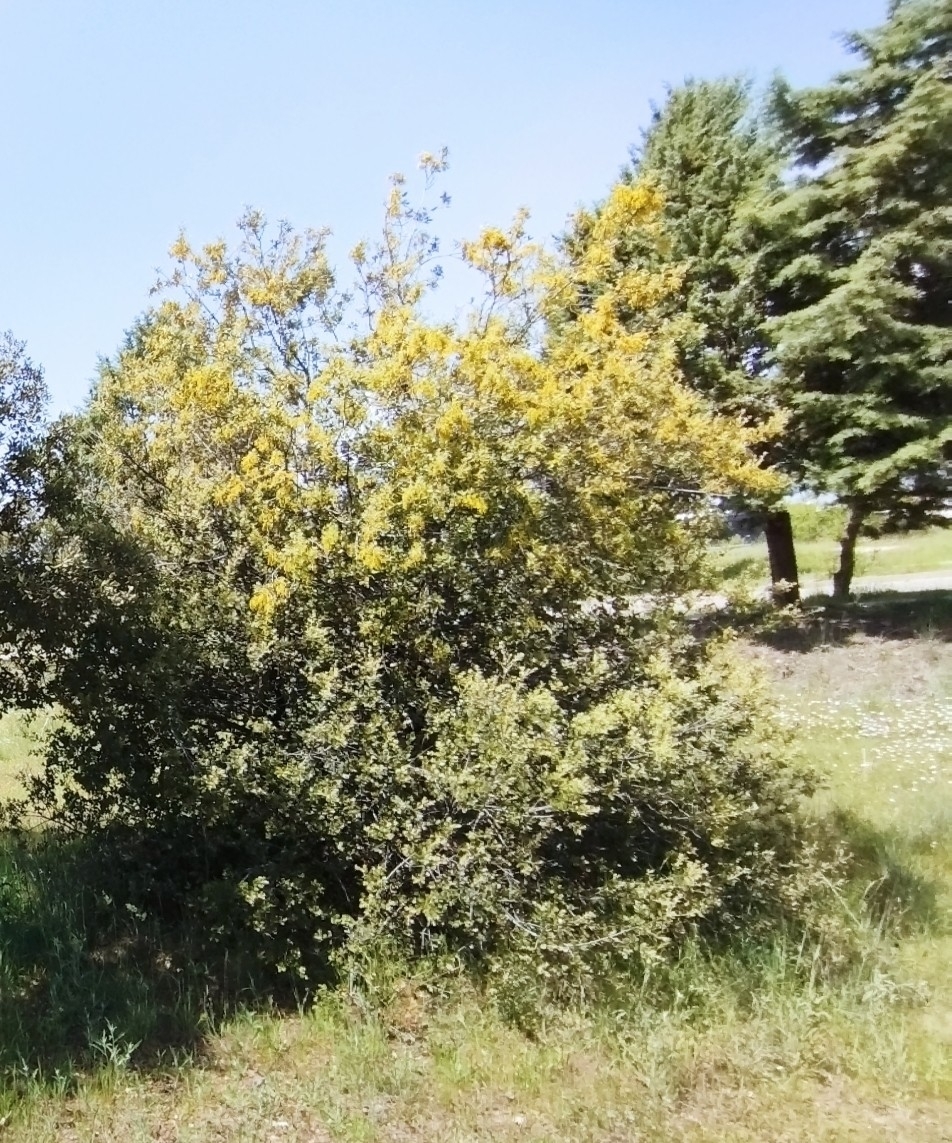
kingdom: Plantae
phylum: Tracheophyta
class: Magnoliopsida
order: Fagales
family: Fagaceae
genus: Quercus
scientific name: Quercus rotundifolia
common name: Holm oak
